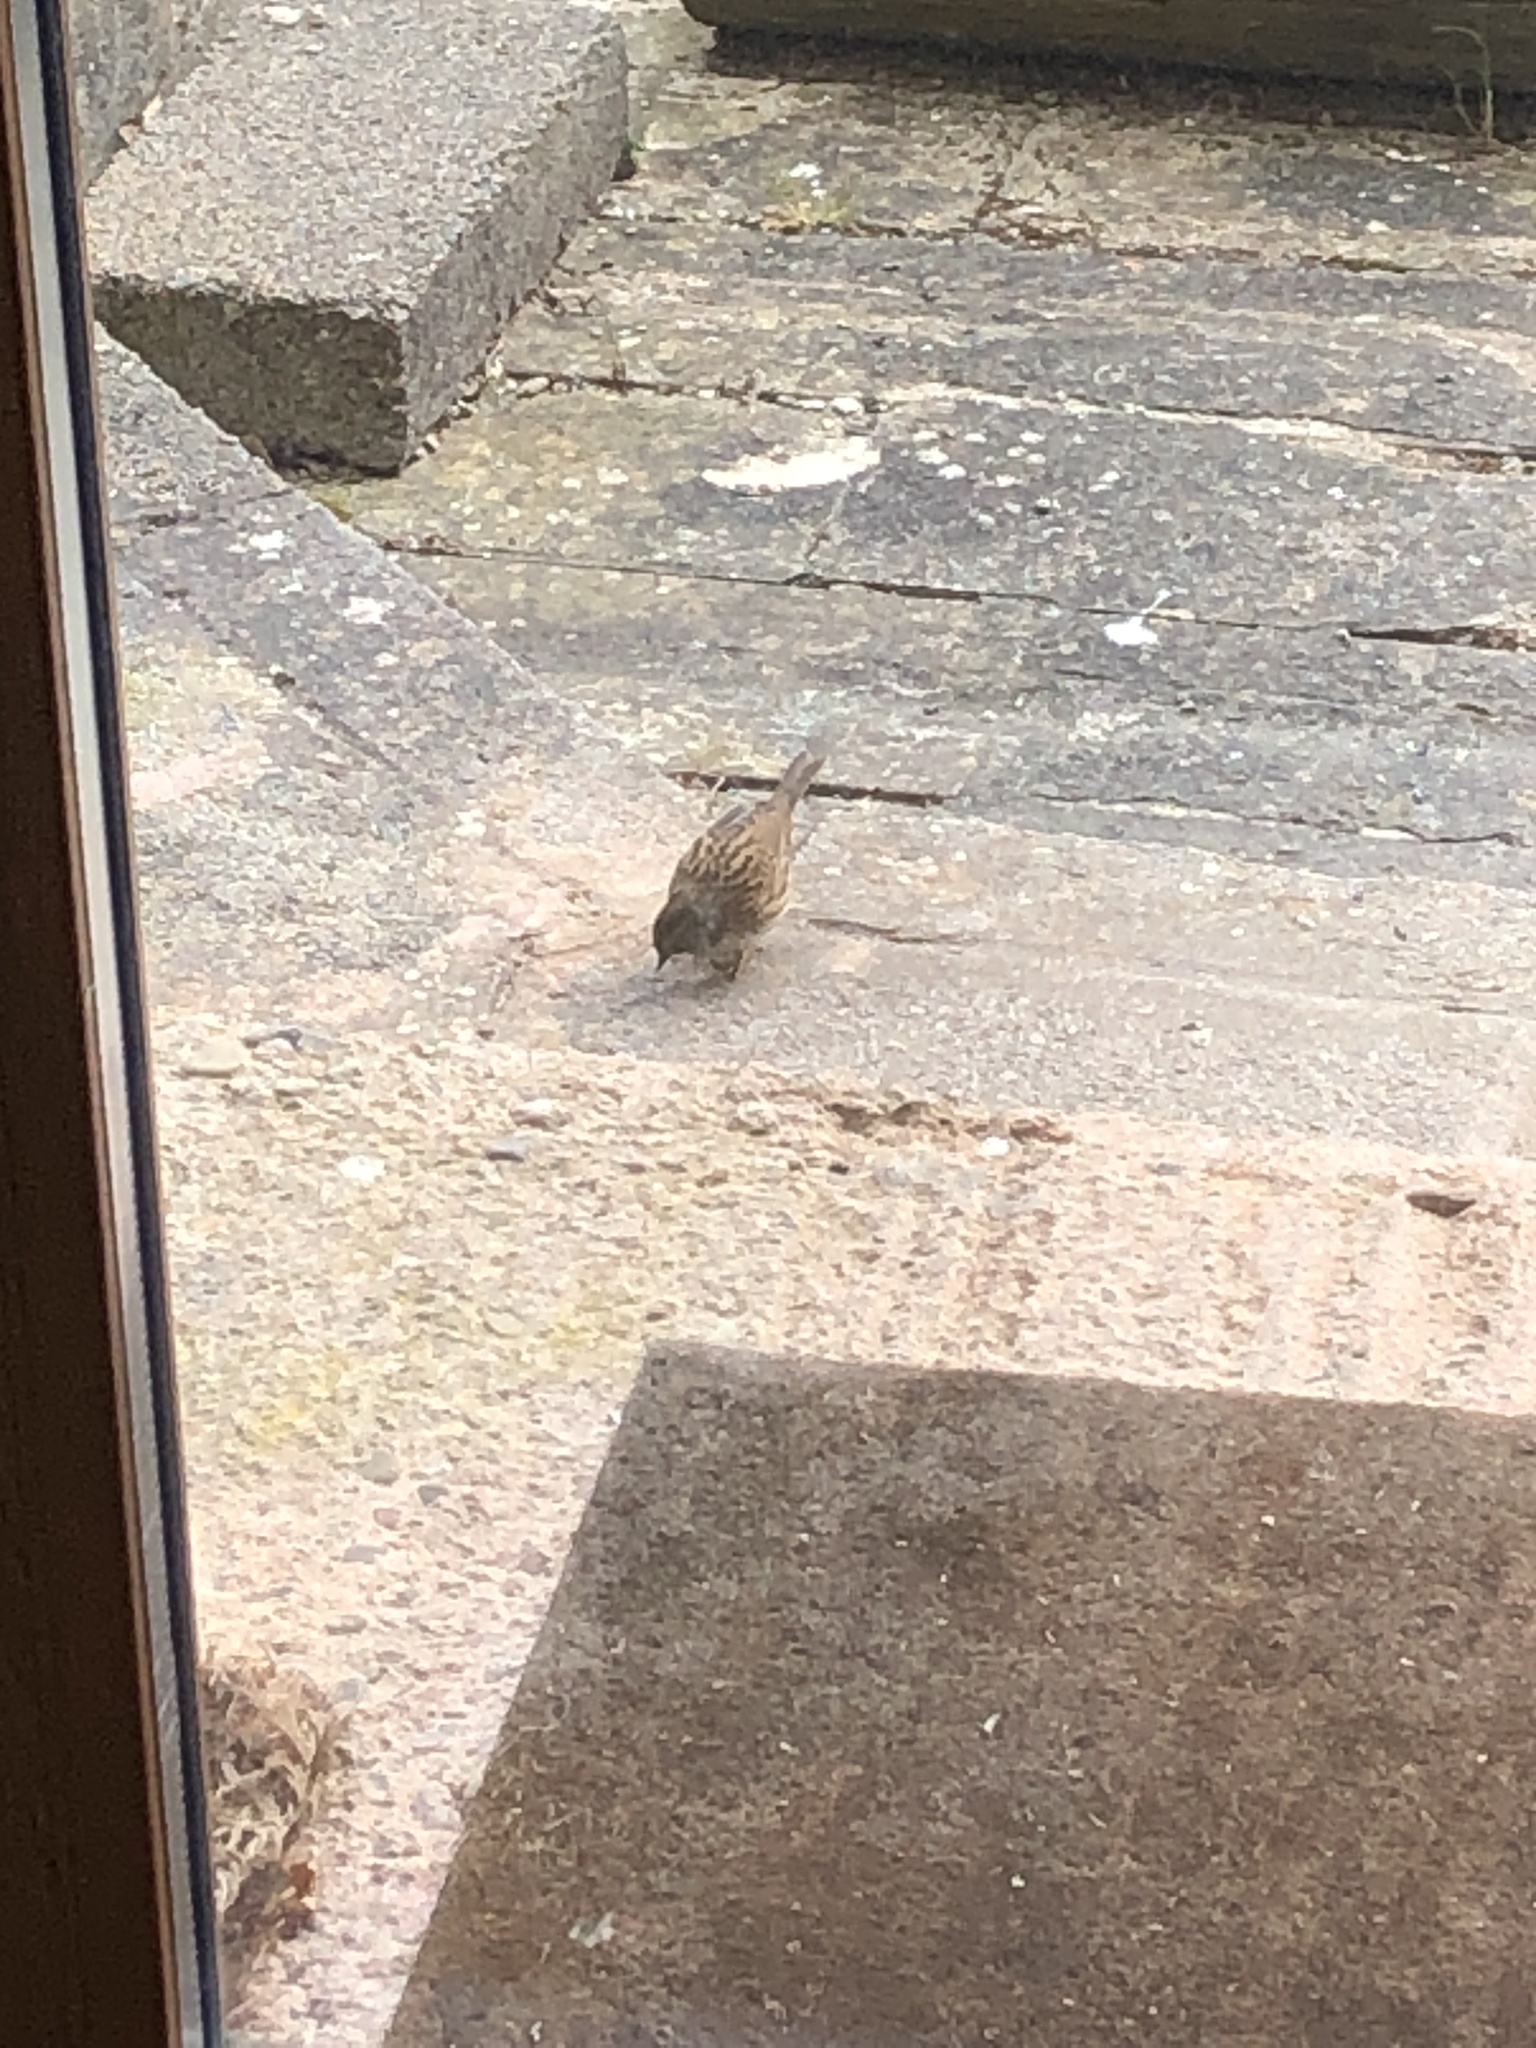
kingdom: Animalia
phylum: Chordata
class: Aves
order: Passeriformes
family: Prunellidae
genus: Prunella
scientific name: Prunella modularis
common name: Dunnock
